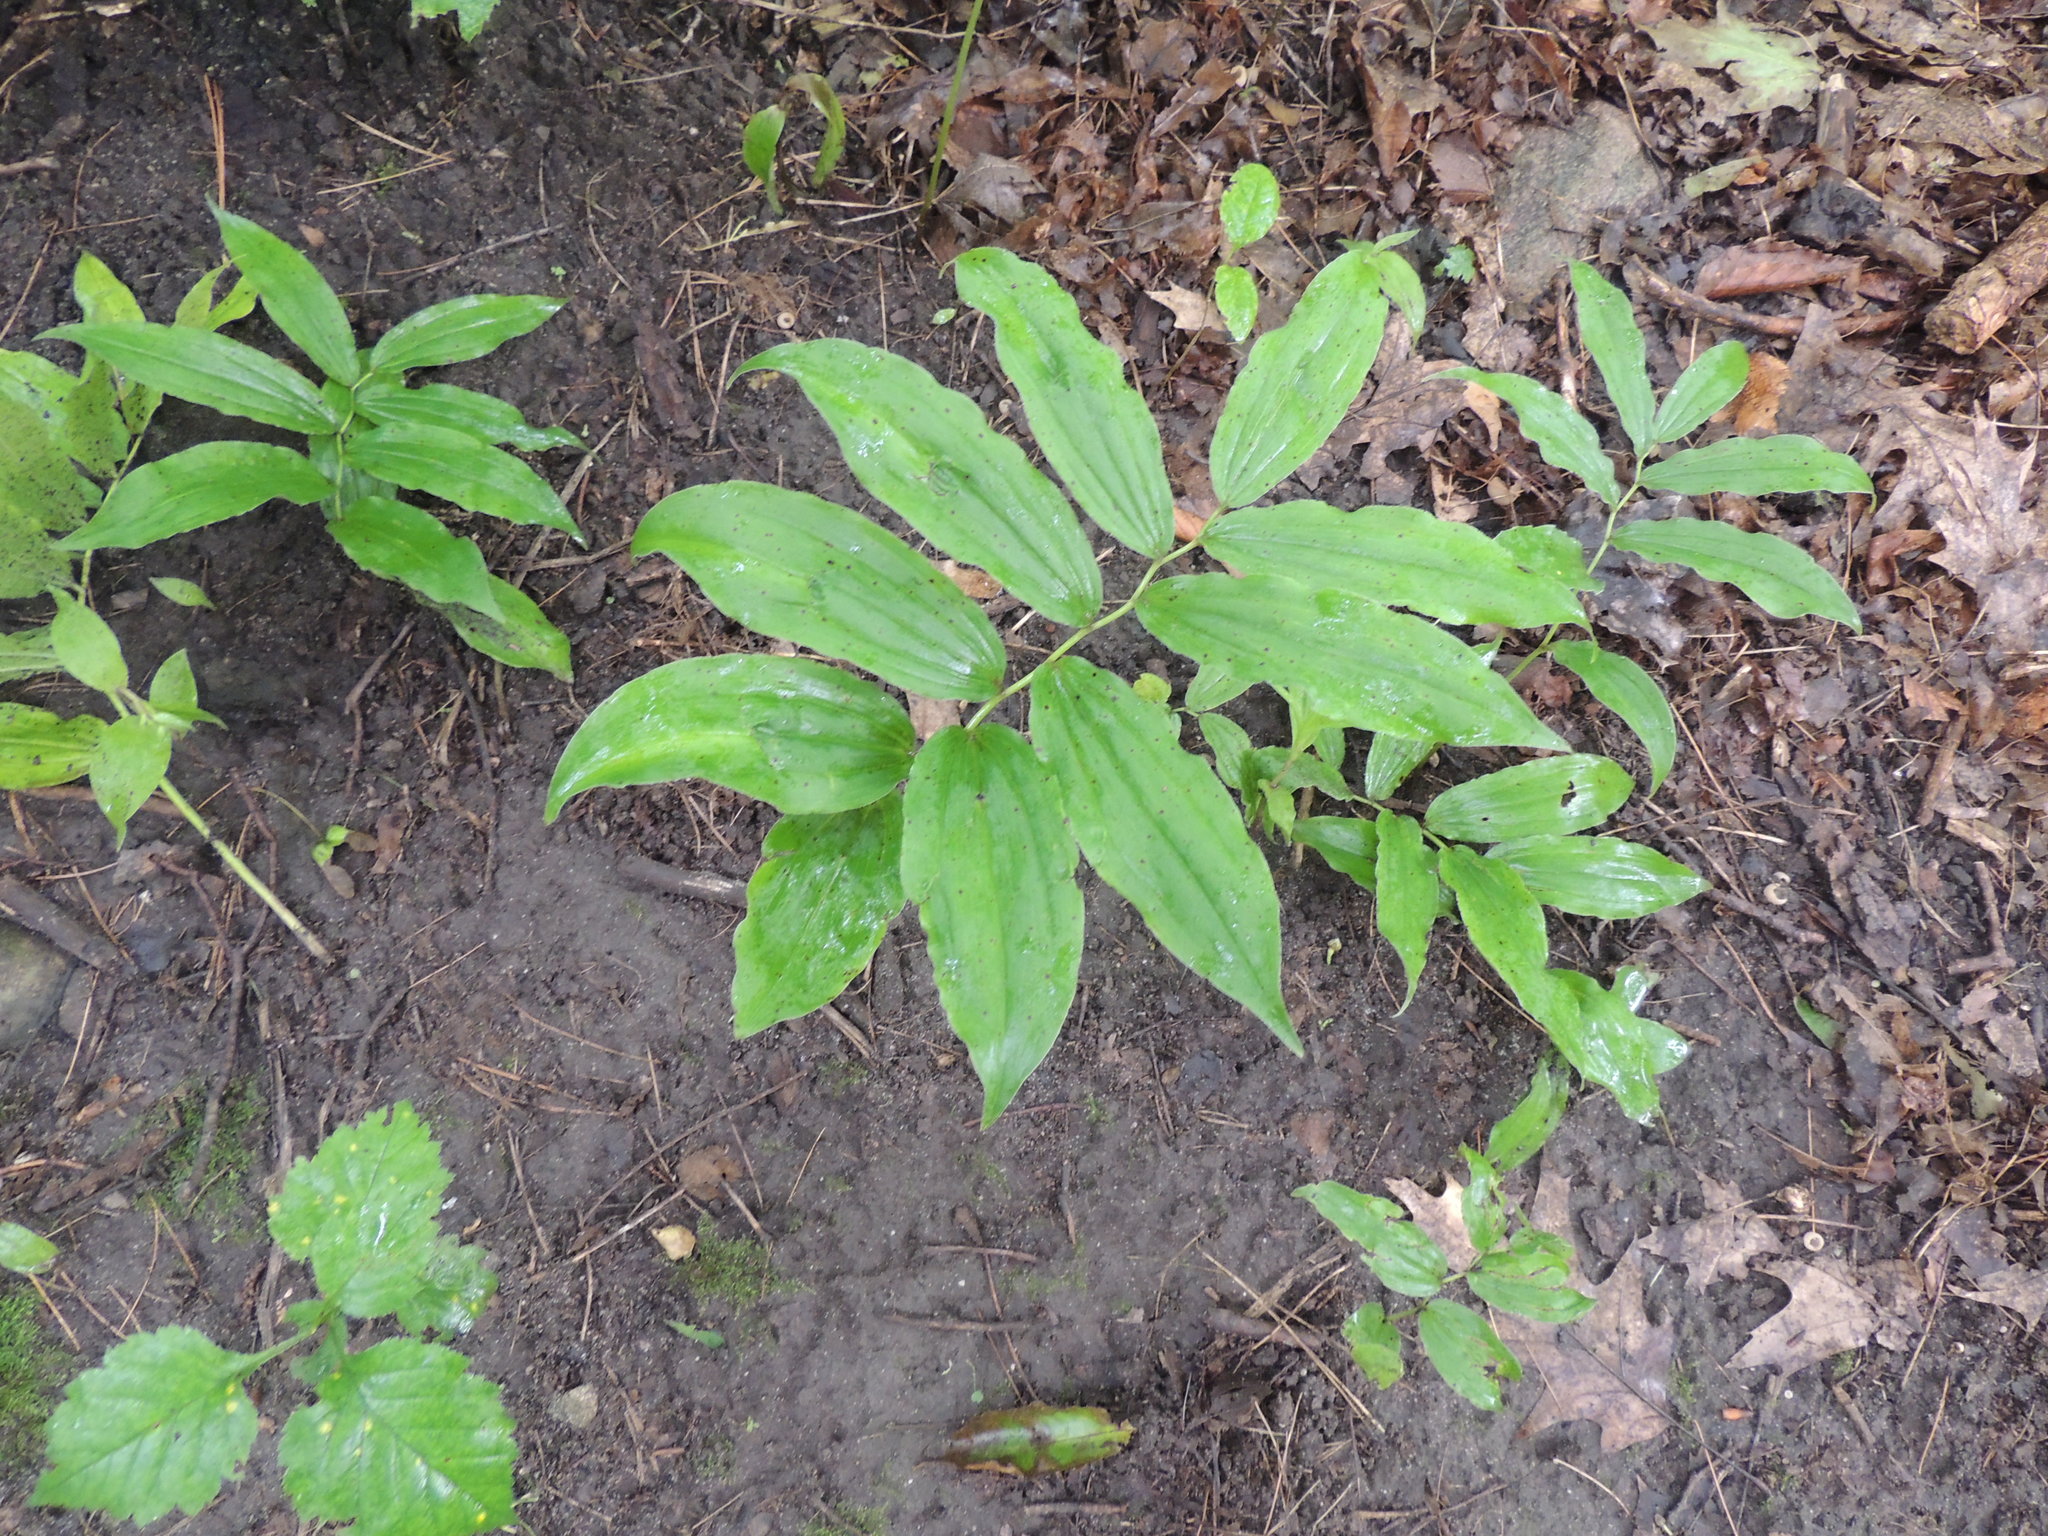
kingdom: Plantae
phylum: Tracheophyta
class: Liliopsida
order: Asparagales
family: Asparagaceae
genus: Maianthemum
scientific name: Maianthemum racemosum
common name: False spikenard
